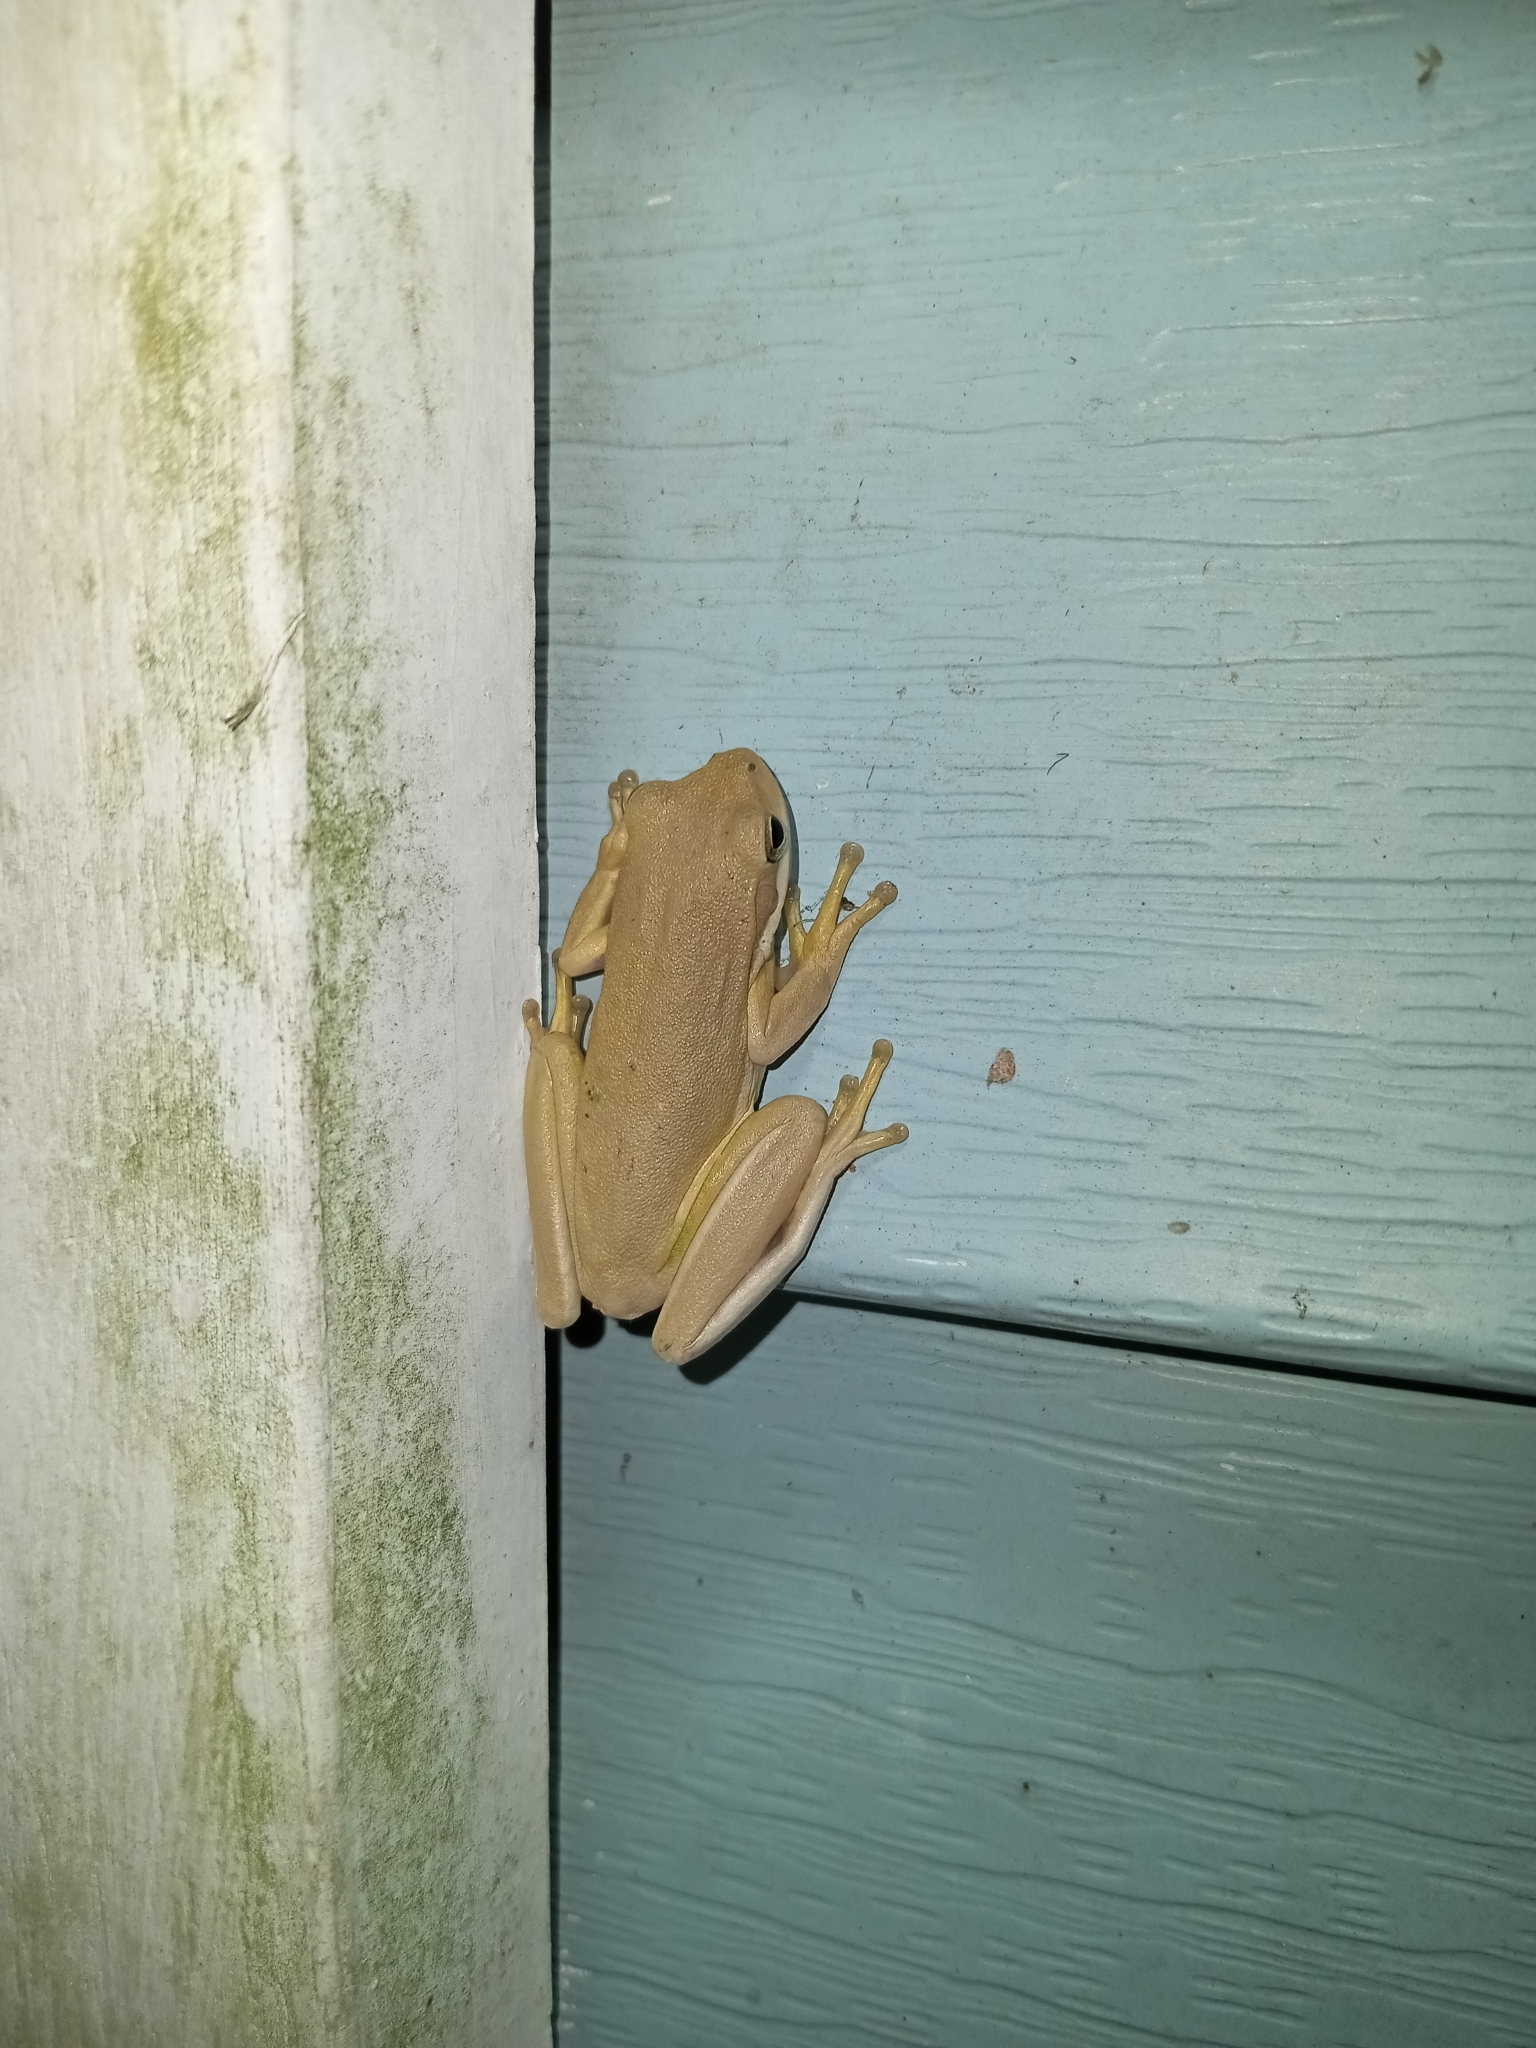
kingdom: Animalia
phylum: Chordata
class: Amphibia
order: Anura
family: Hylidae
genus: Dryophytes
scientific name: Dryophytes cinereus
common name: Green treefrog
